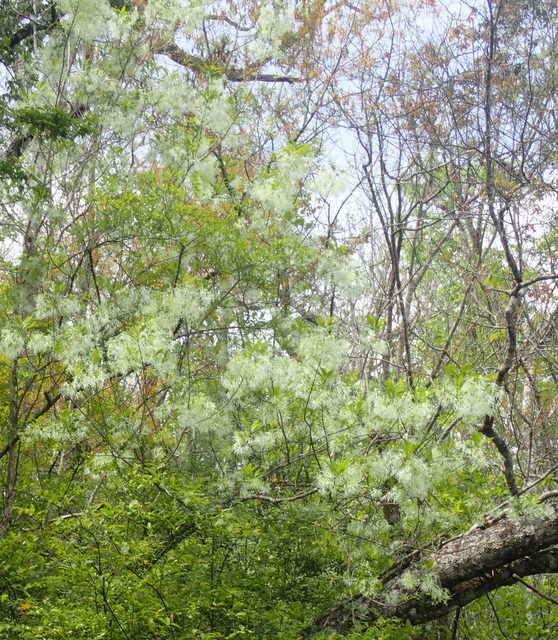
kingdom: Plantae
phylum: Tracheophyta
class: Magnoliopsida
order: Lamiales
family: Oleaceae
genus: Chionanthus
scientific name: Chionanthus virginicus
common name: American fringetree
